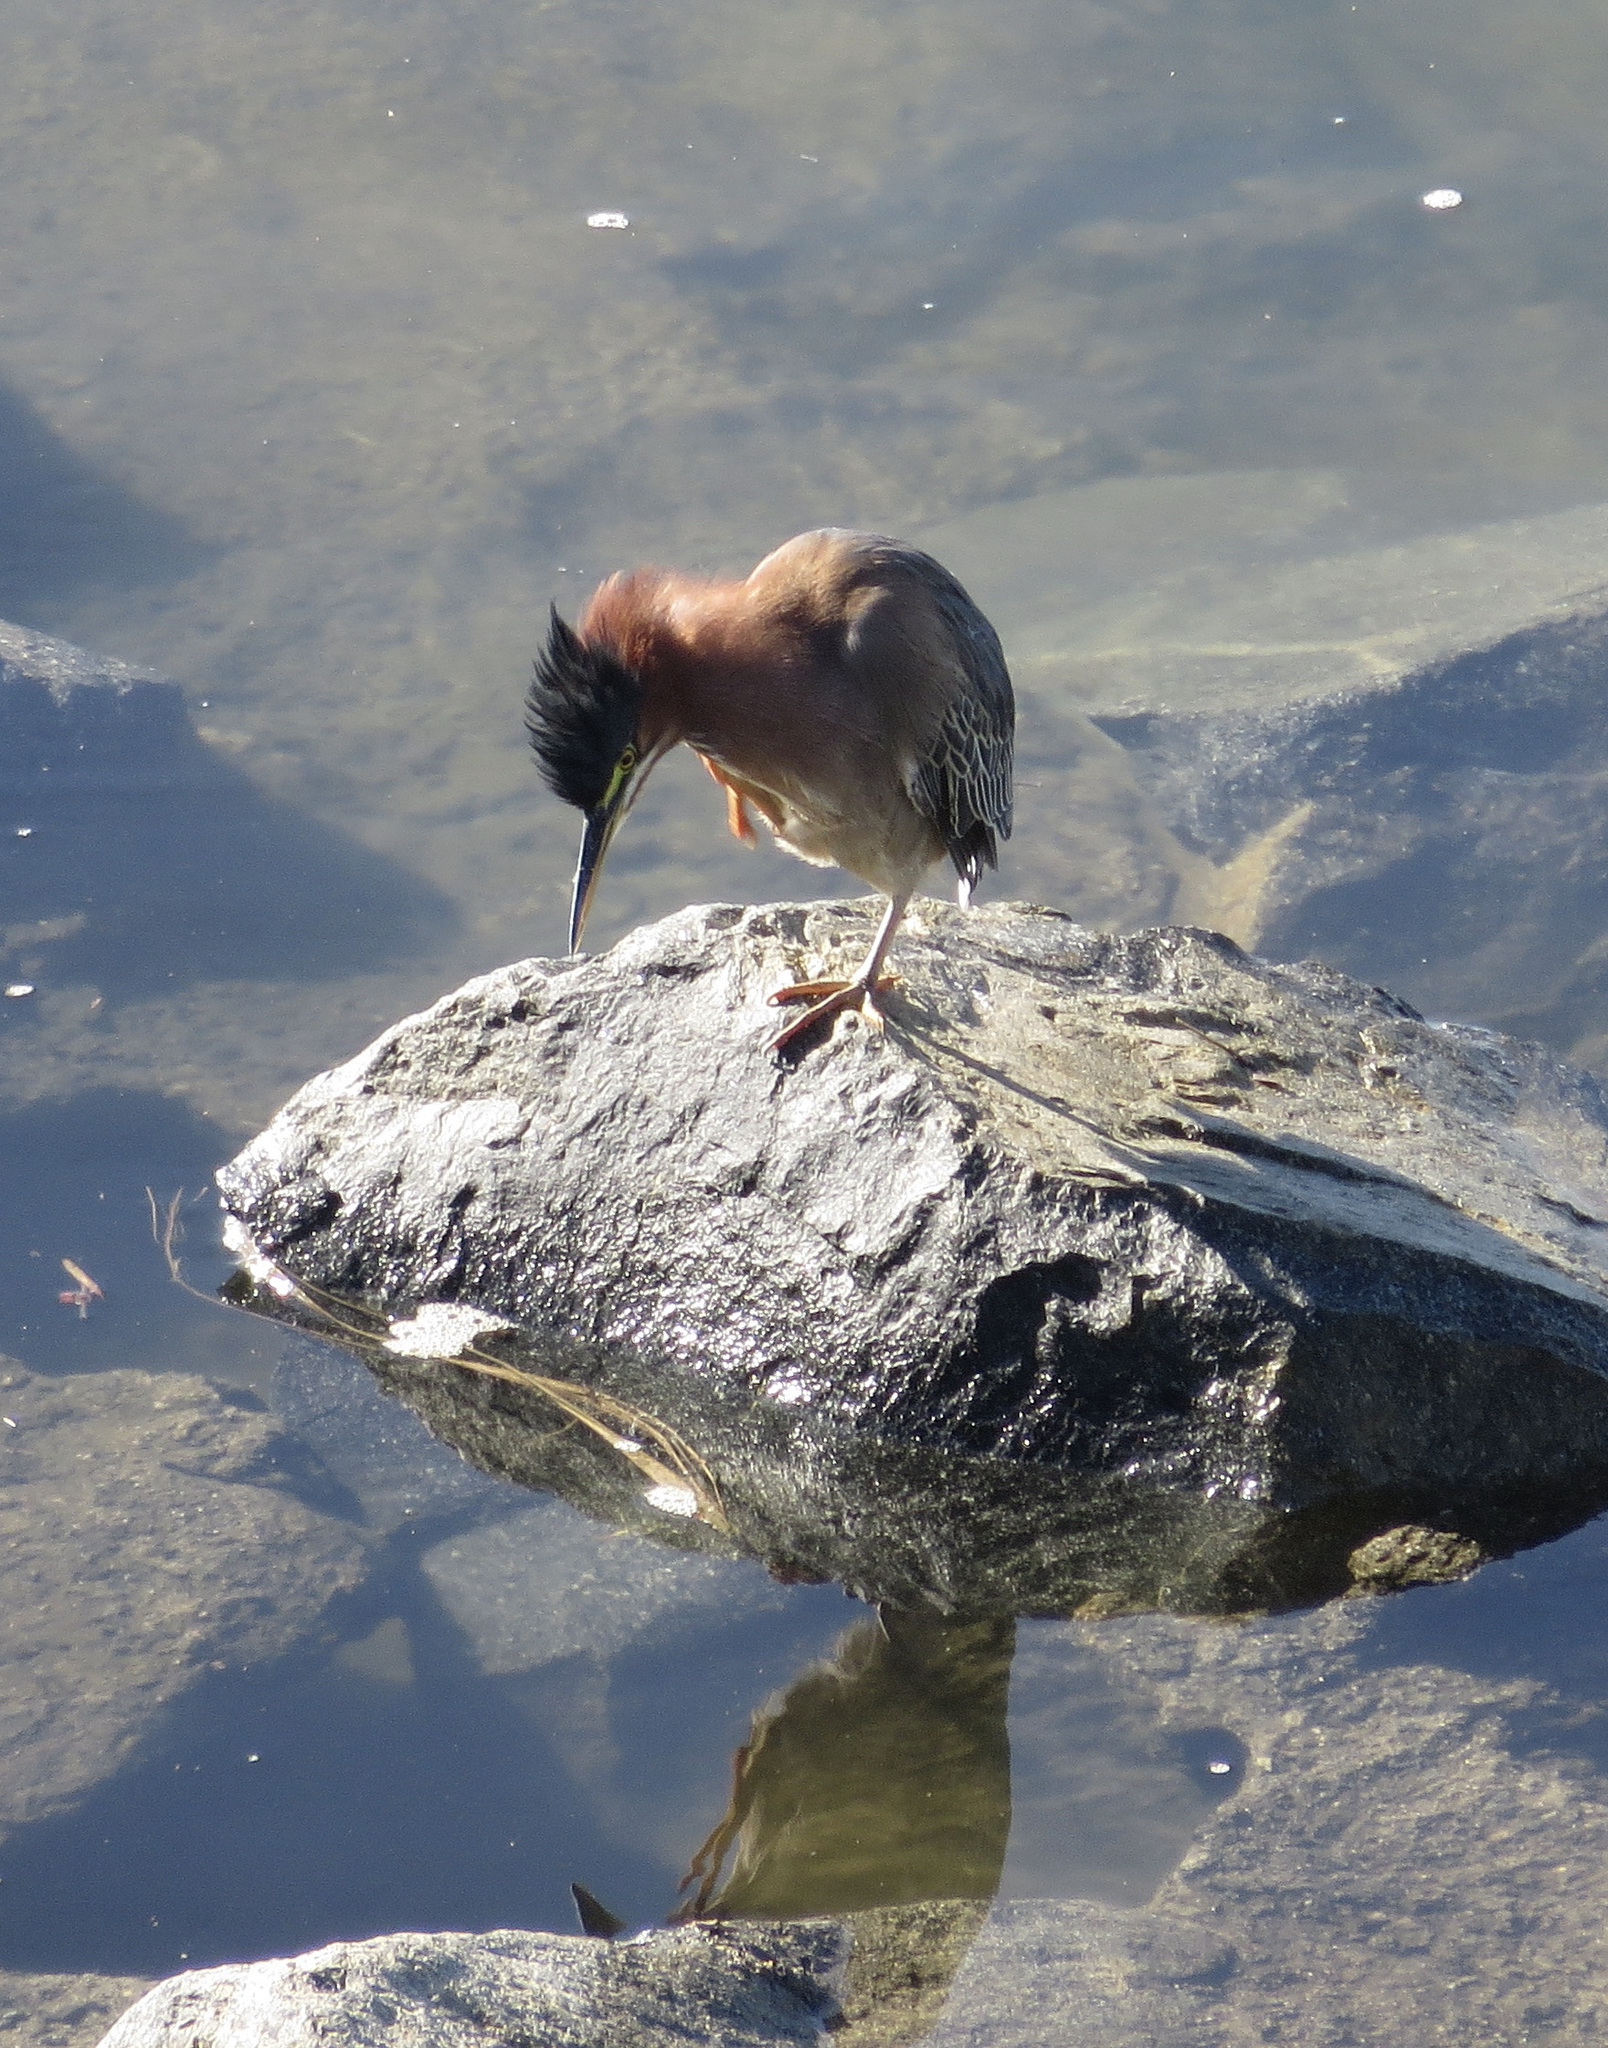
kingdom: Animalia
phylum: Chordata
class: Aves
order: Pelecaniformes
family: Ardeidae
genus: Butorides
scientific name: Butorides virescens
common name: Green heron
